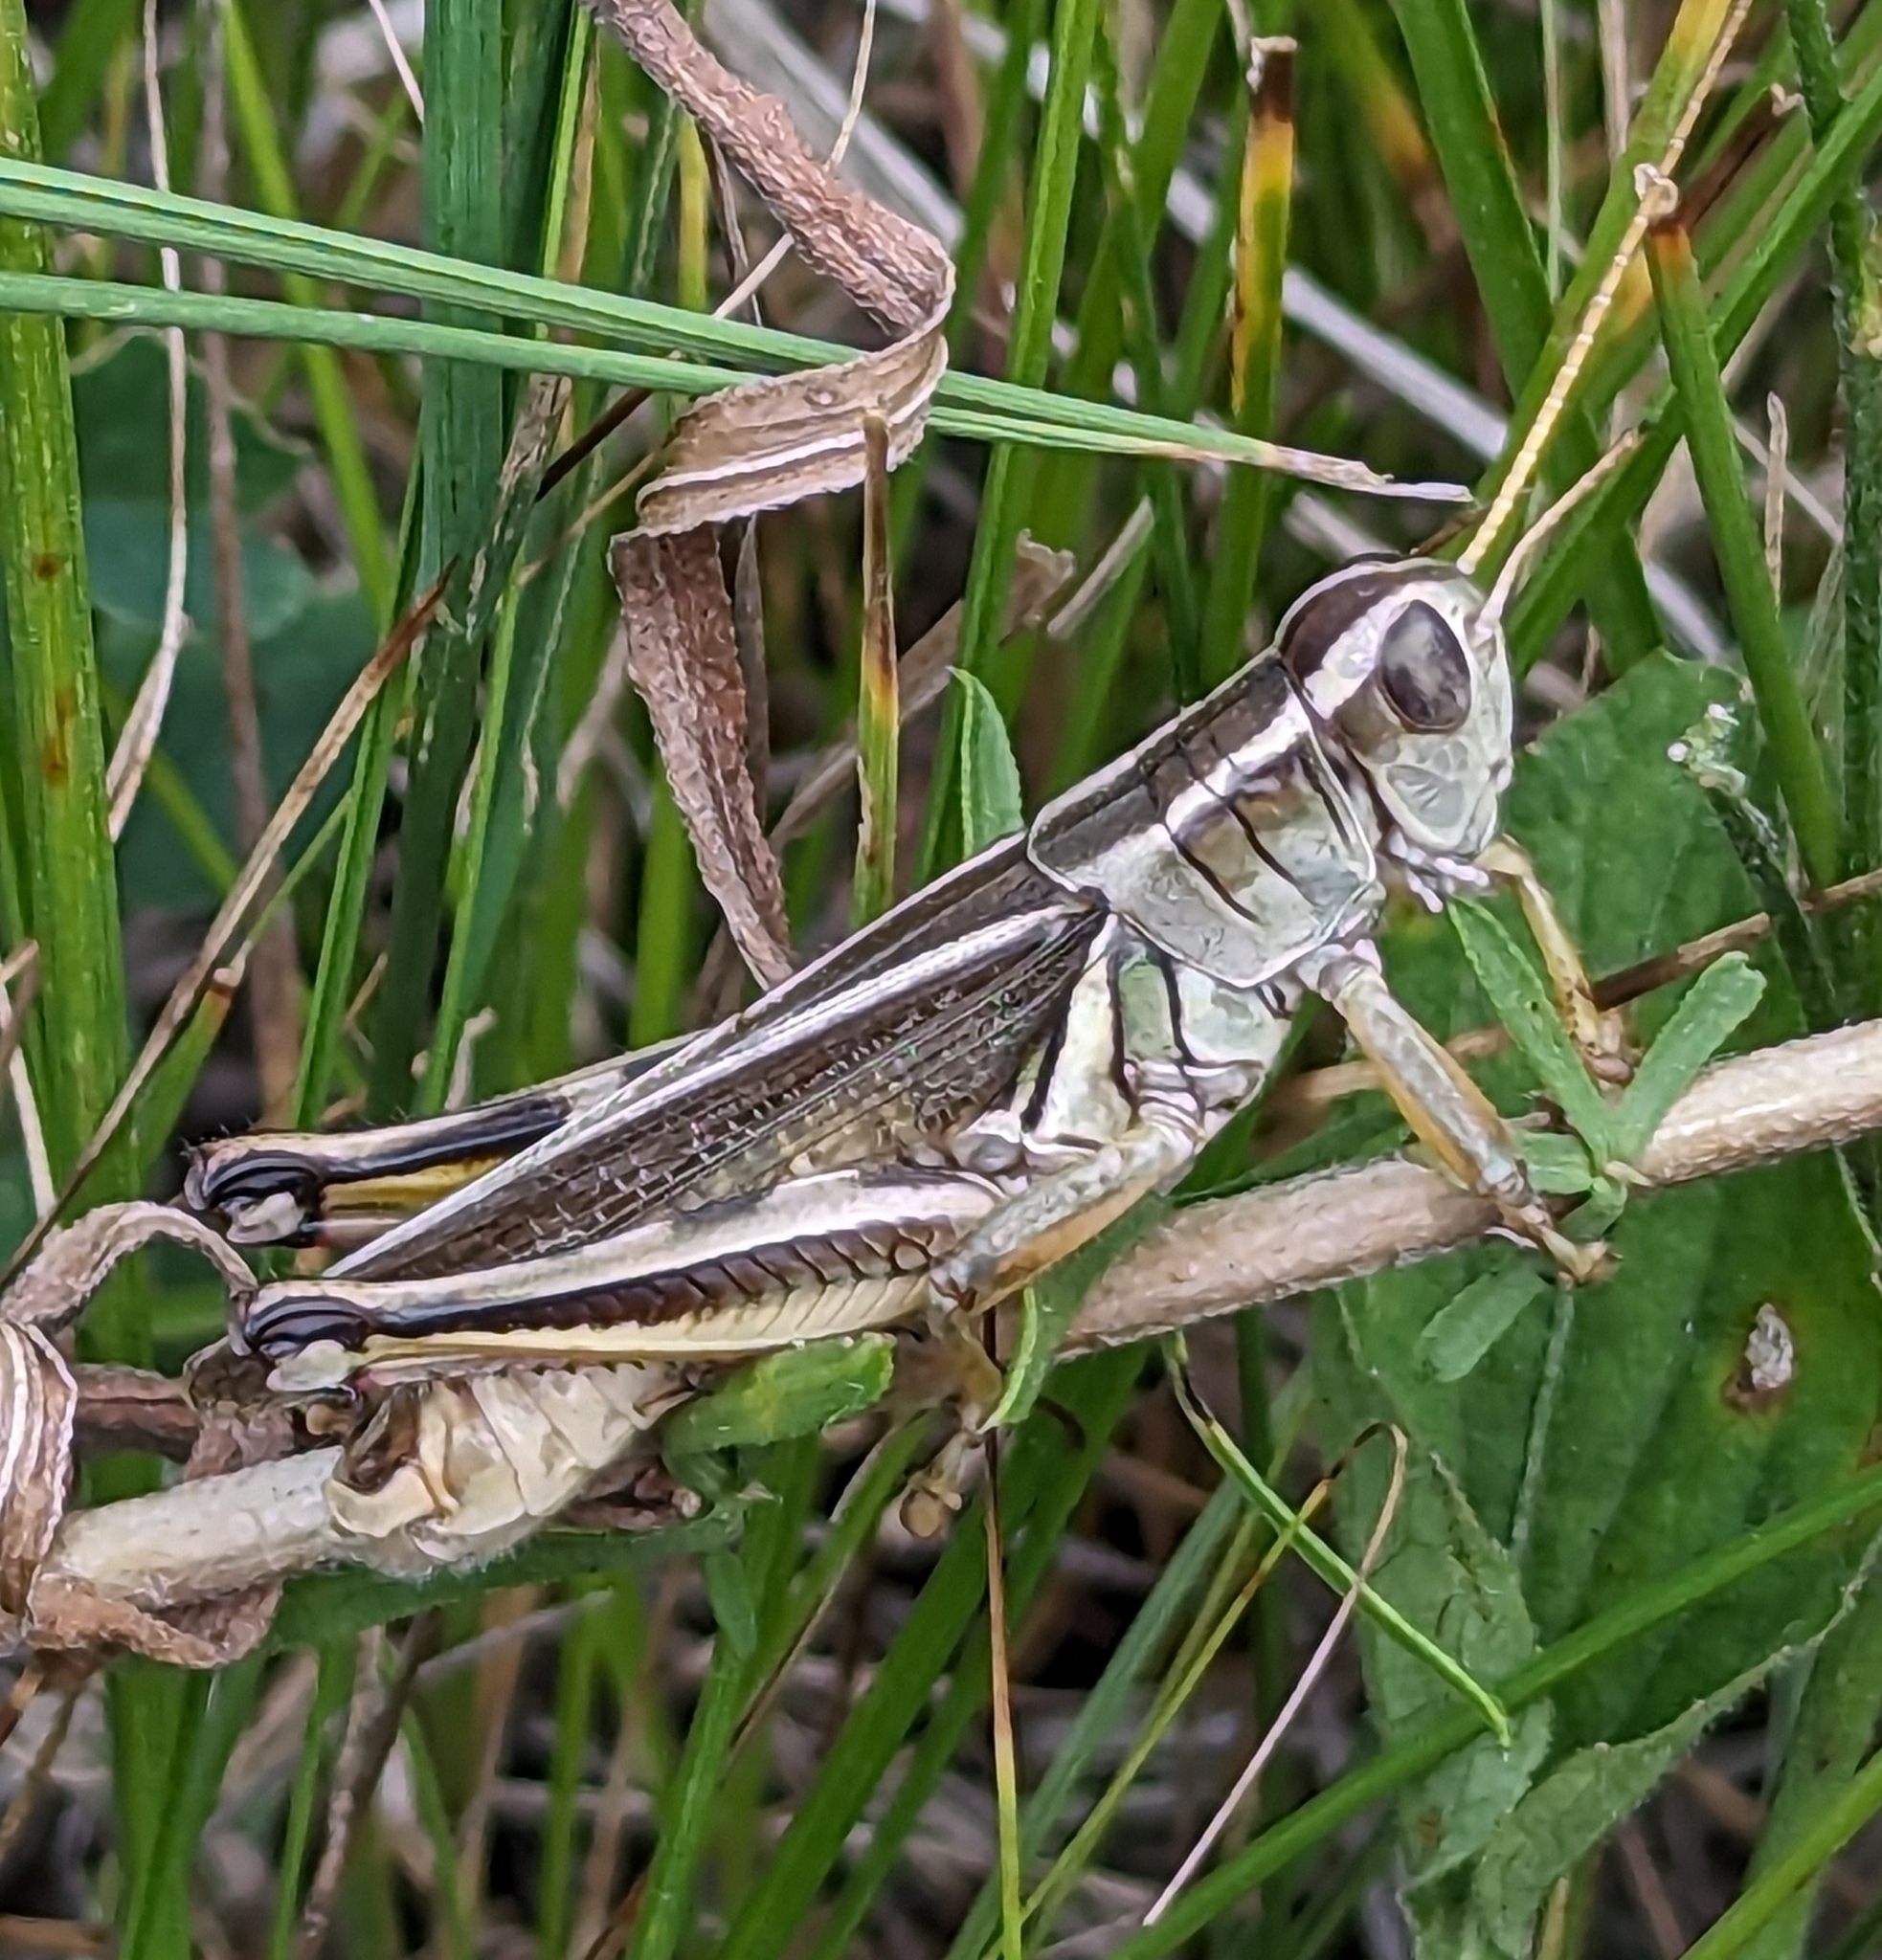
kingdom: Animalia
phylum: Arthropoda
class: Insecta
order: Orthoptera
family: Acrididae
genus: Melanoplus
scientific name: Melanoplus bivittatus
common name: Two-striped grasshopper
